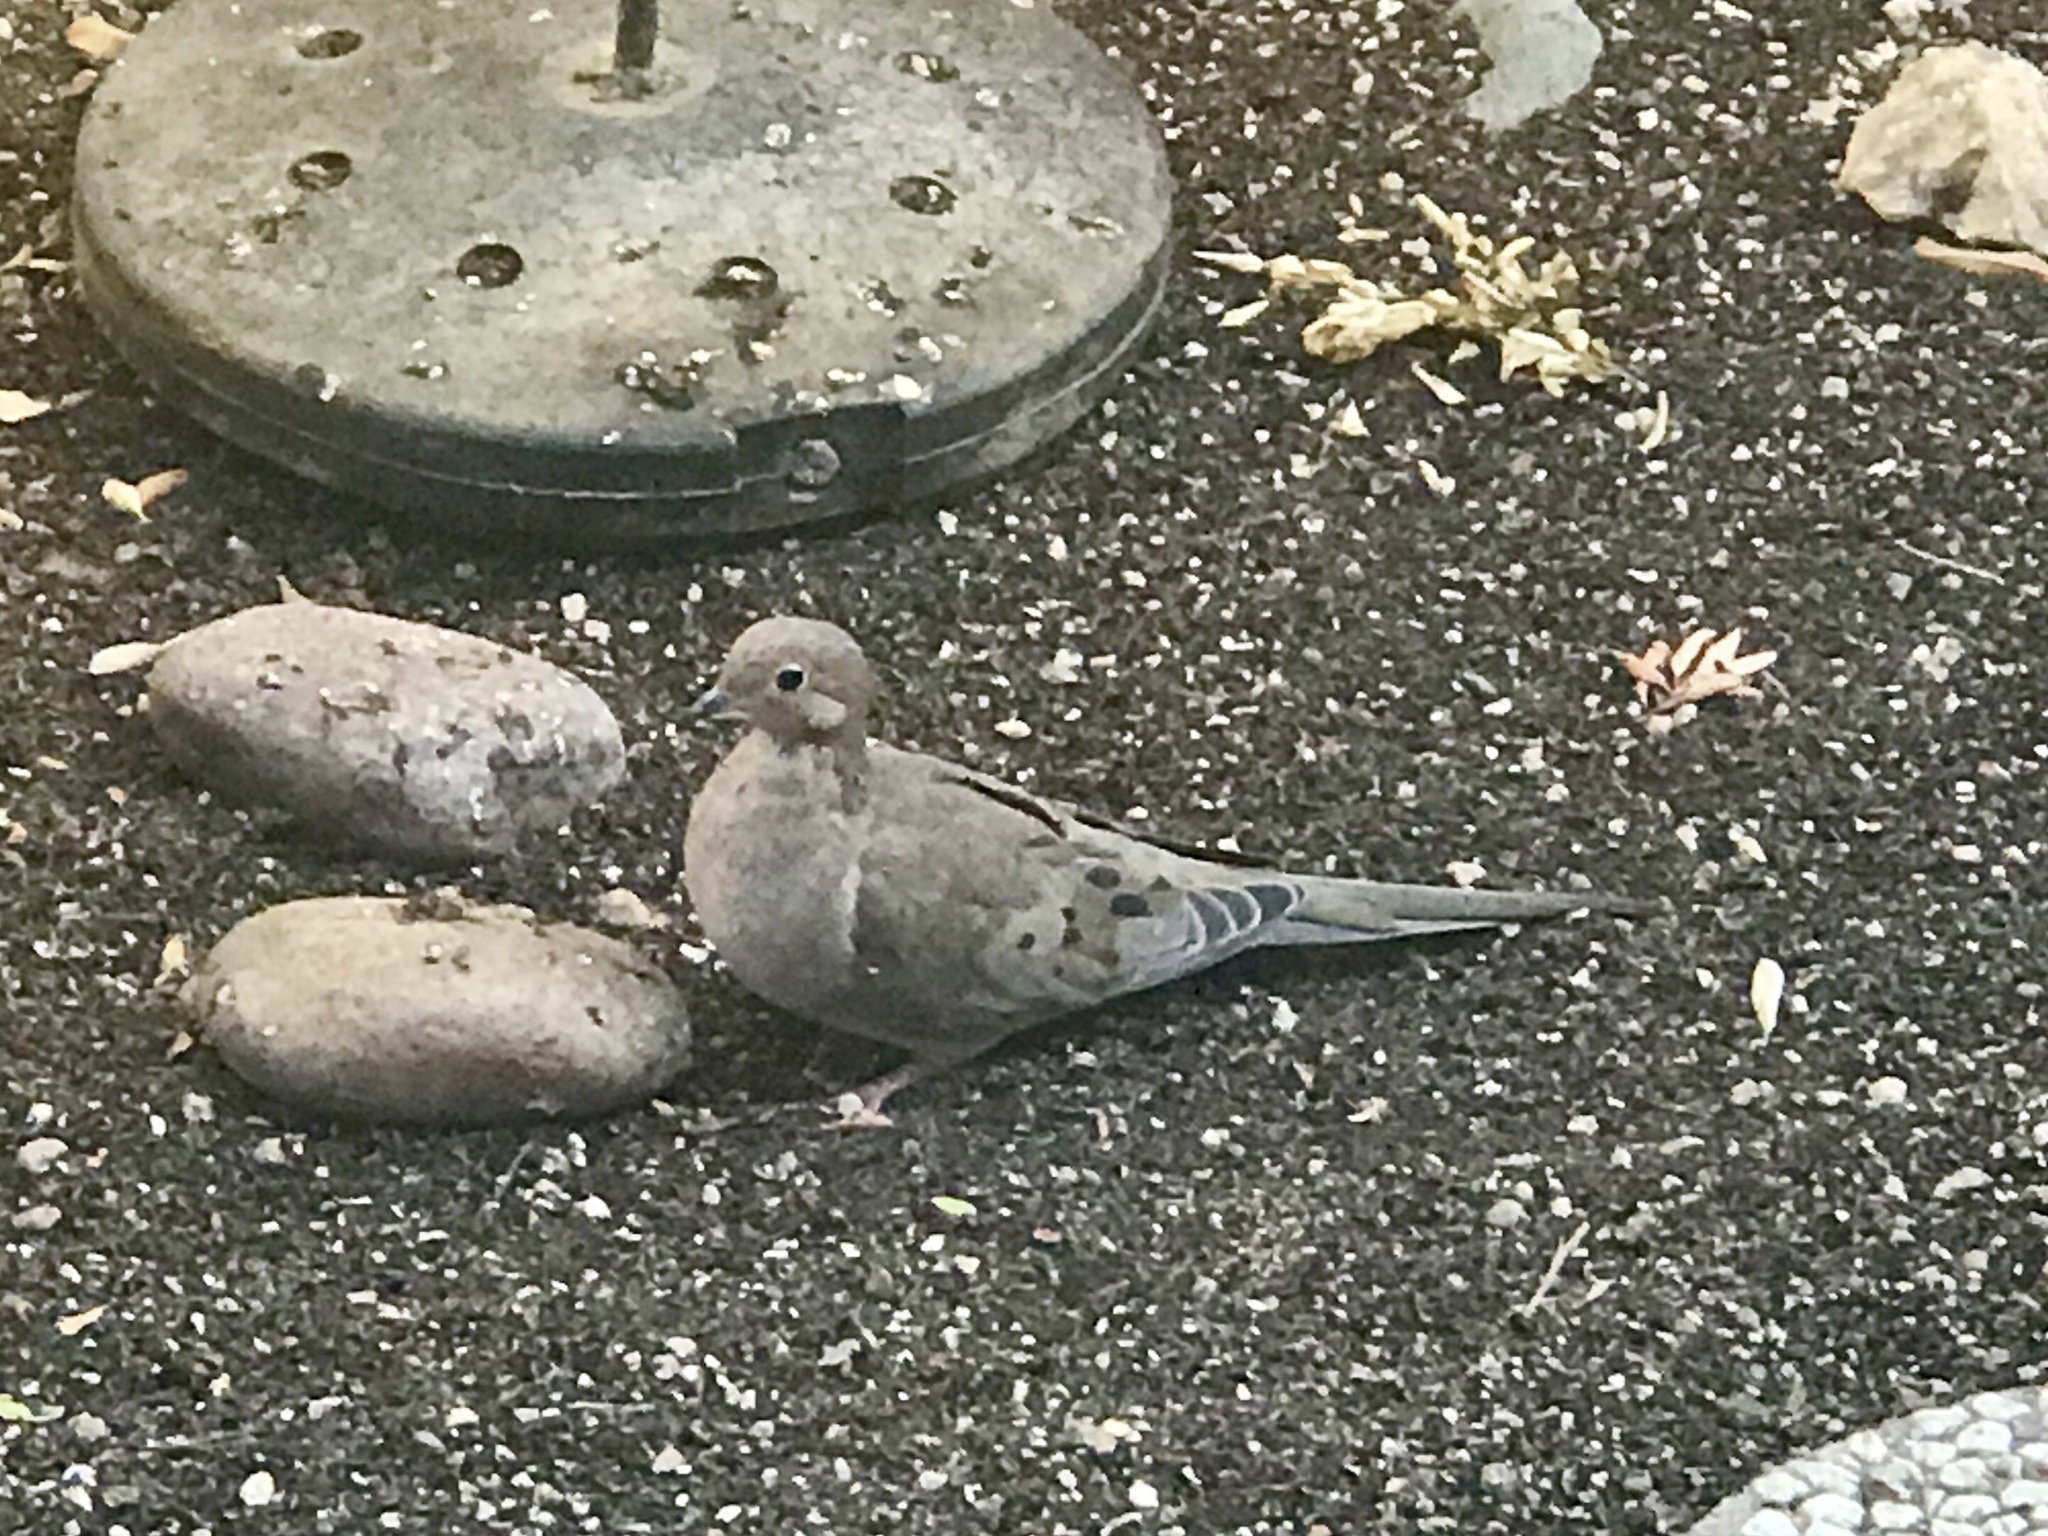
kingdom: Animalia
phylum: Chordata
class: Aves
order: Columbiformes
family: Columbidae
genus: Zenaida
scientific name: Zenaida macroura
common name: Mourning dove
